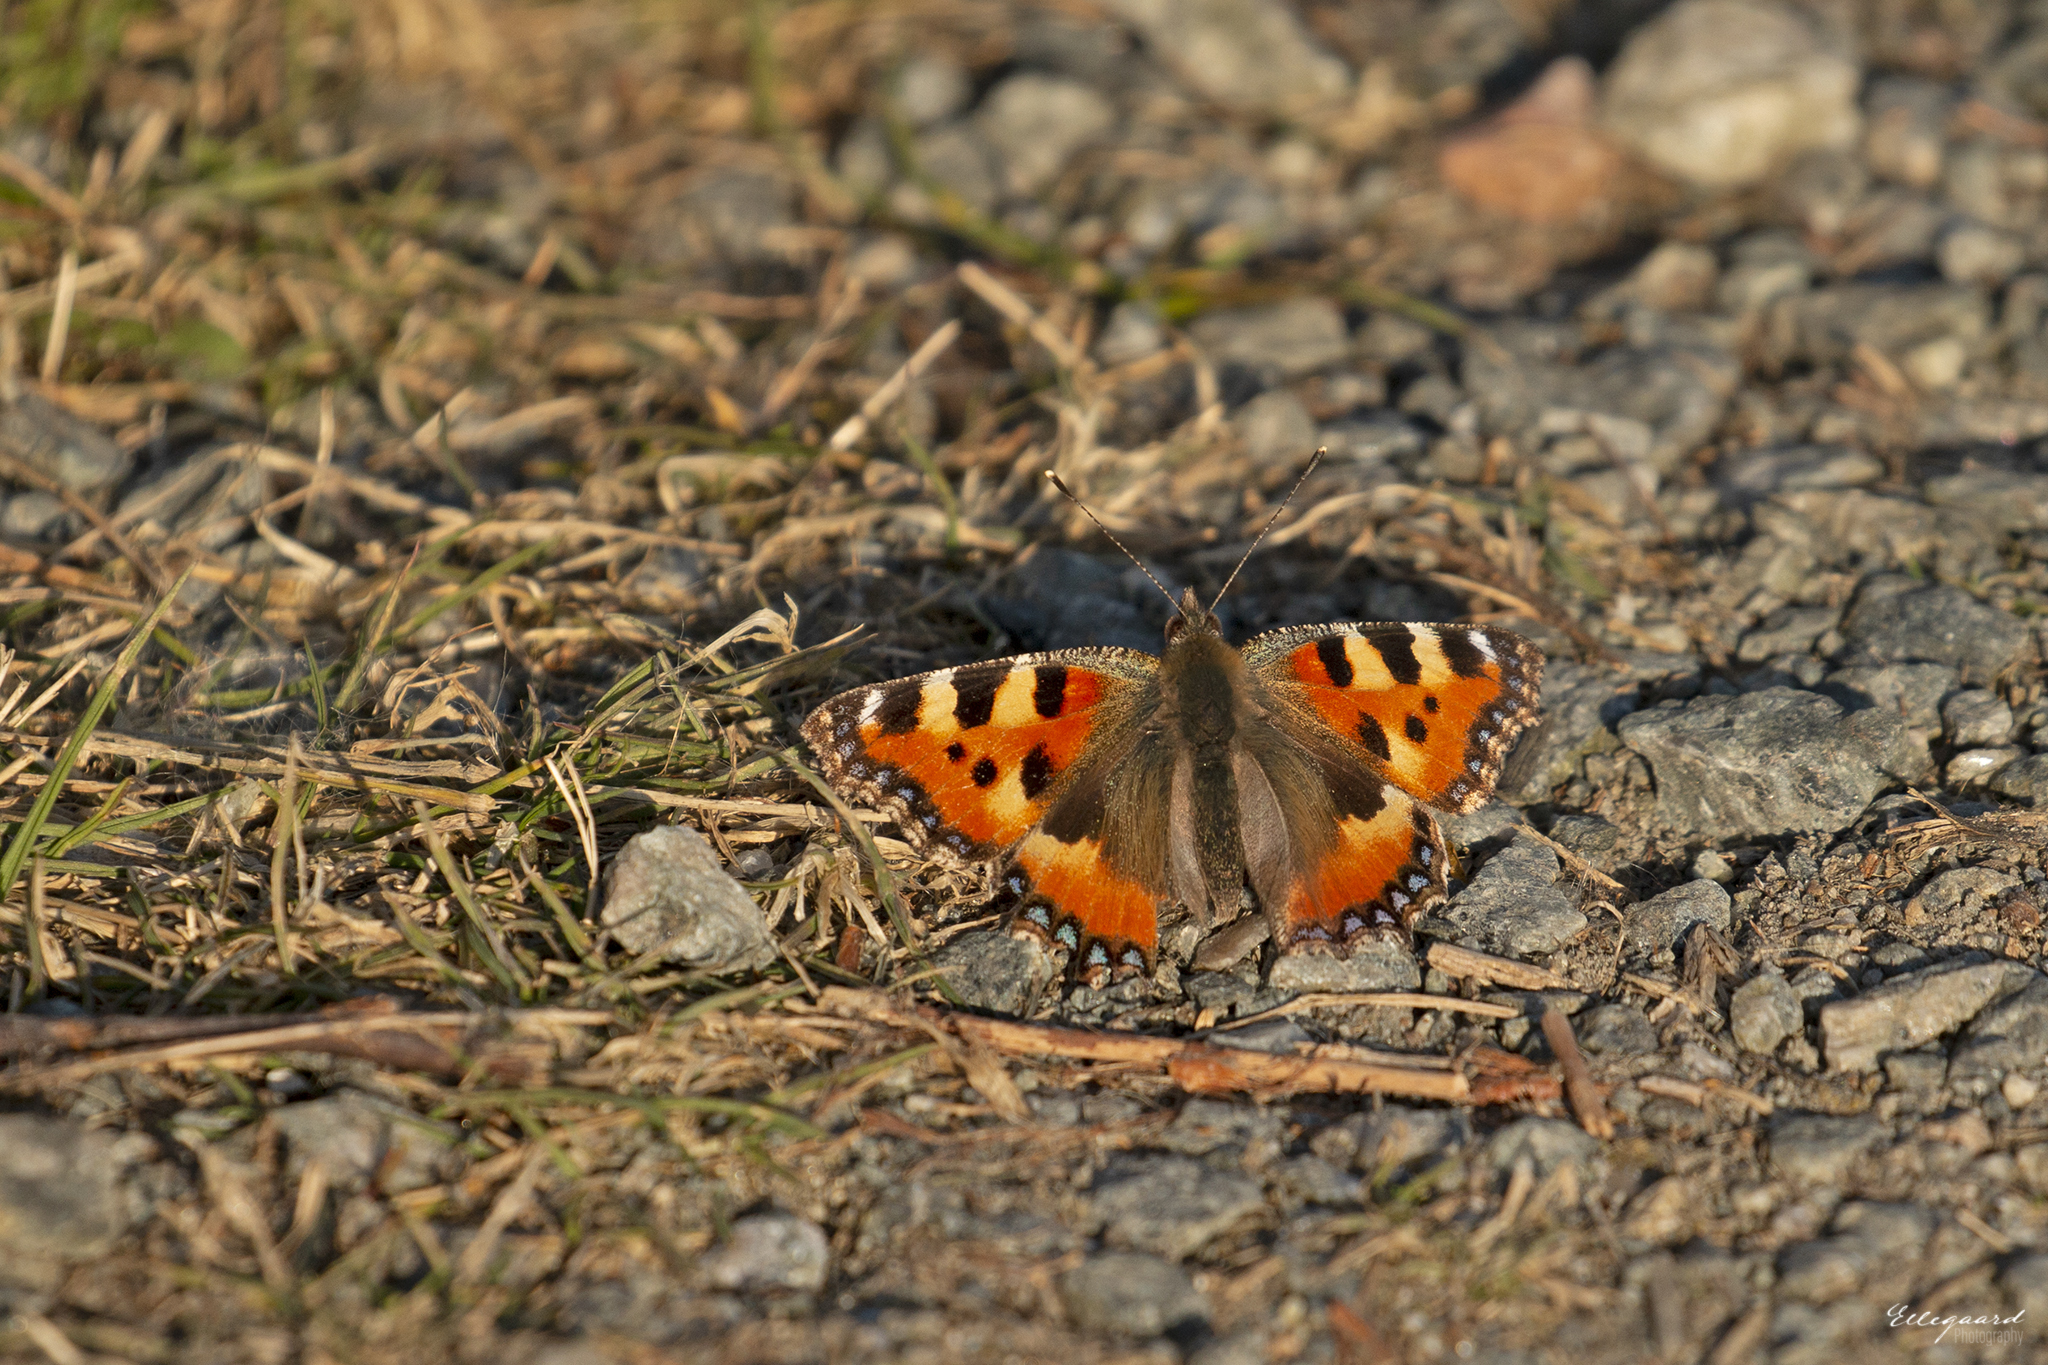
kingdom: Animalia
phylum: Arthropoda
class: Insecta
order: Lepidoptera
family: Nymphalidae
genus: Aglais
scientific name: Aglais urticae
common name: Small tortoiseshell
